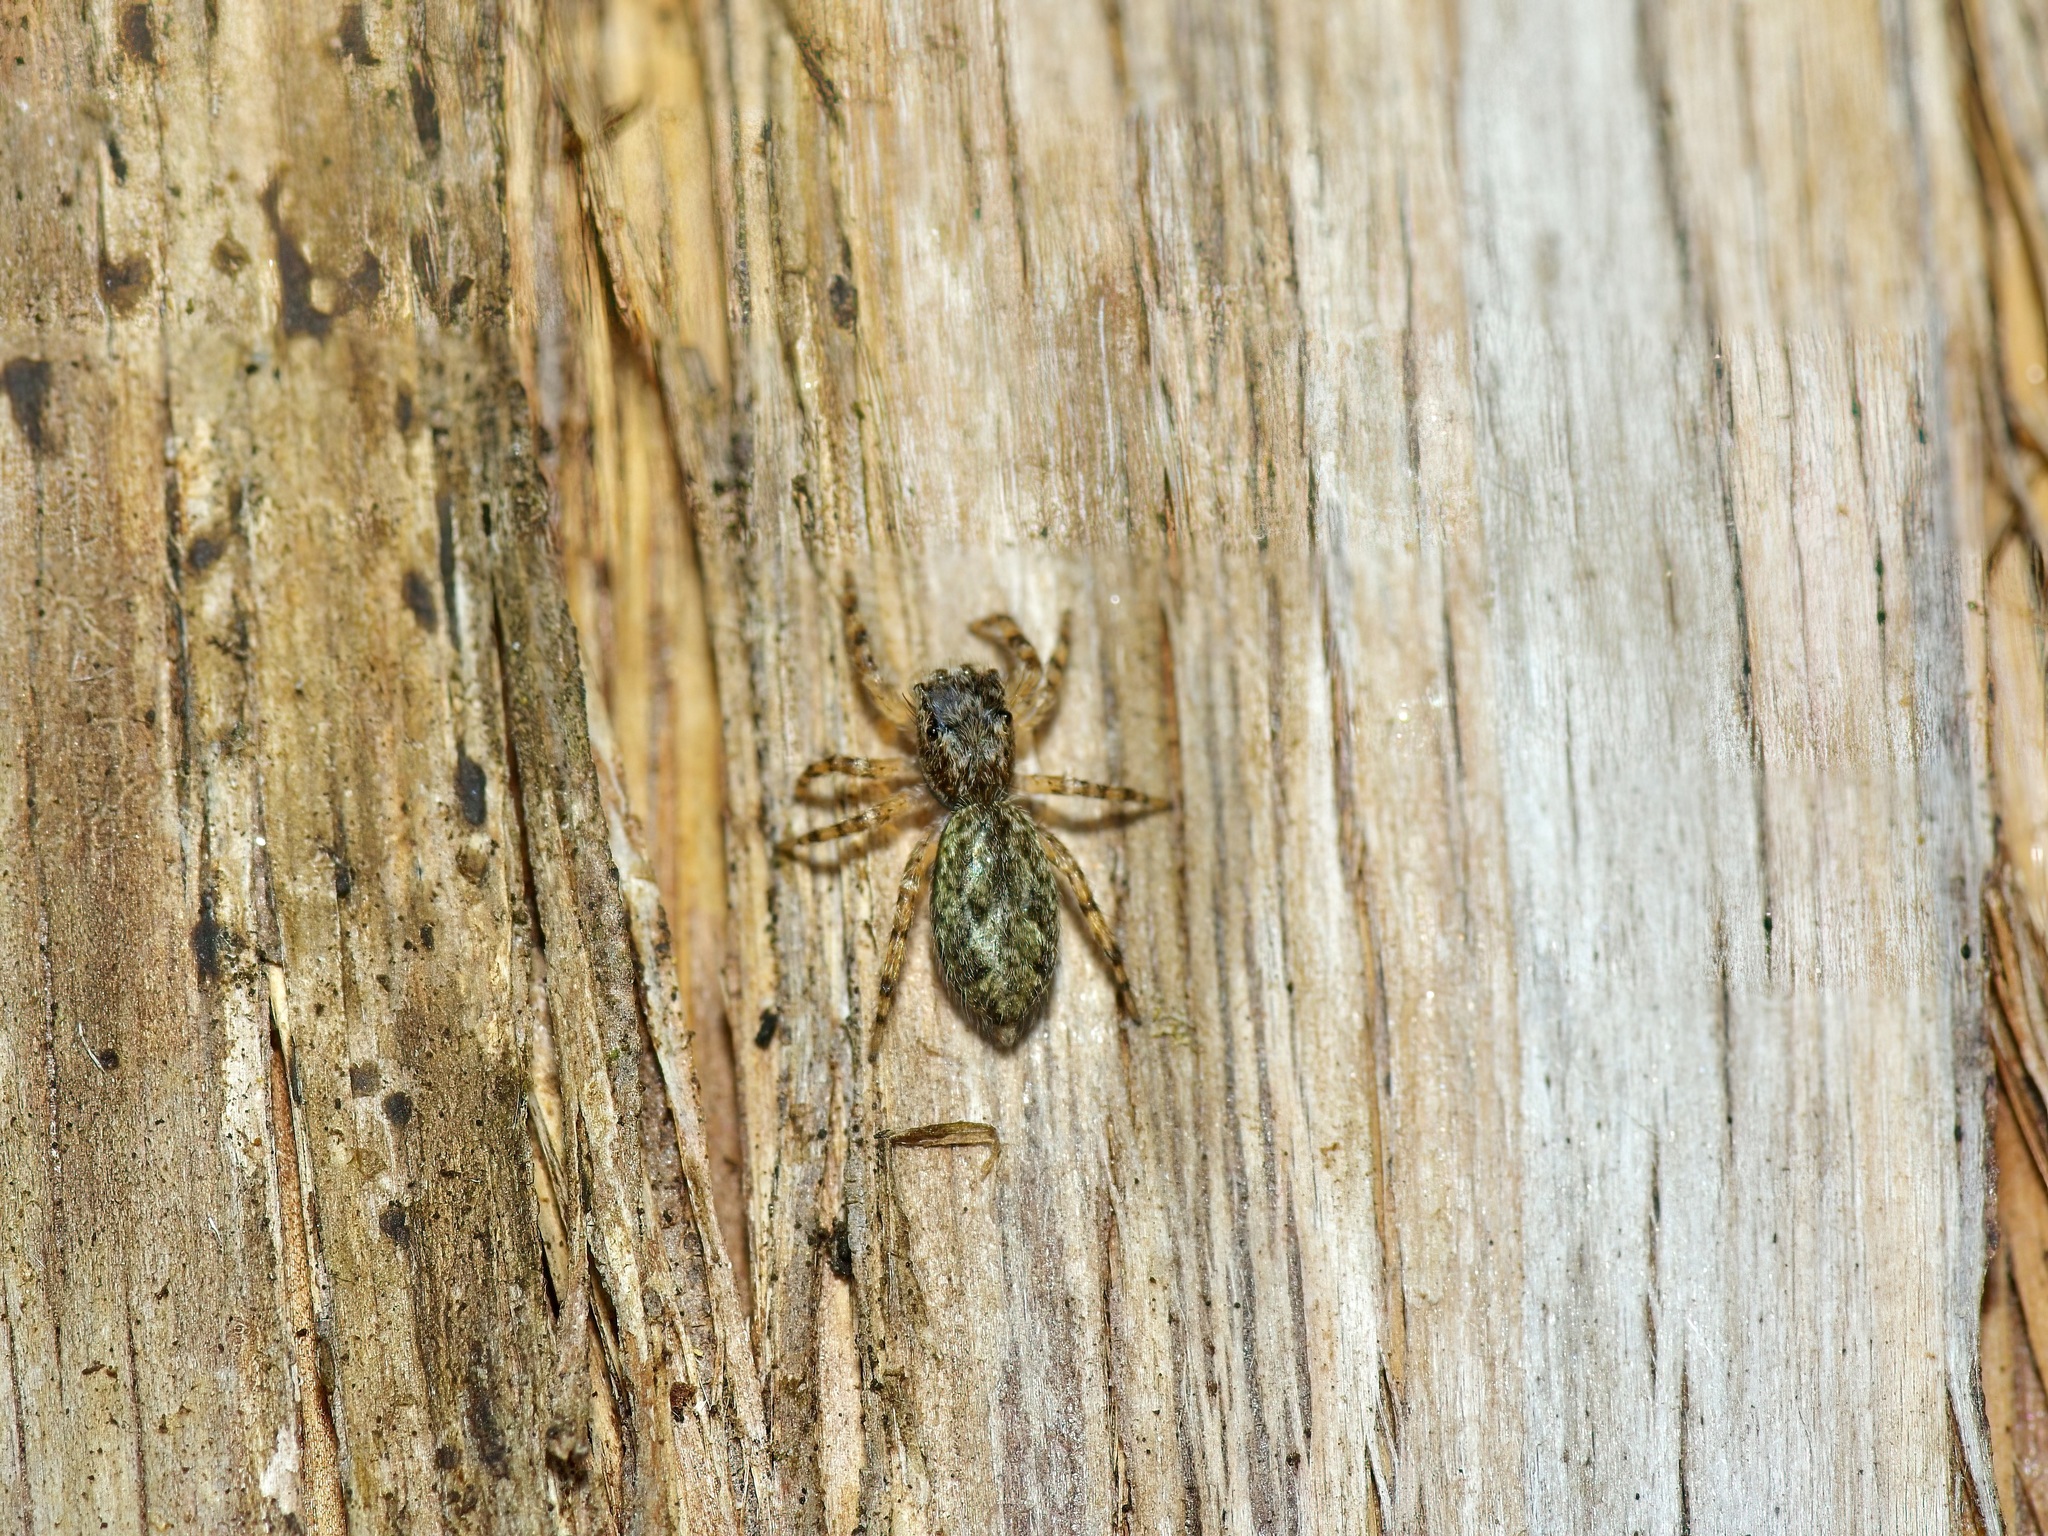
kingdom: Animalia
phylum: Arthropoda
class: Arachnida
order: Araneae
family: Salticidae
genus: Platycryptus
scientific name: Platycryptus undatus
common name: Tan jumping spider
